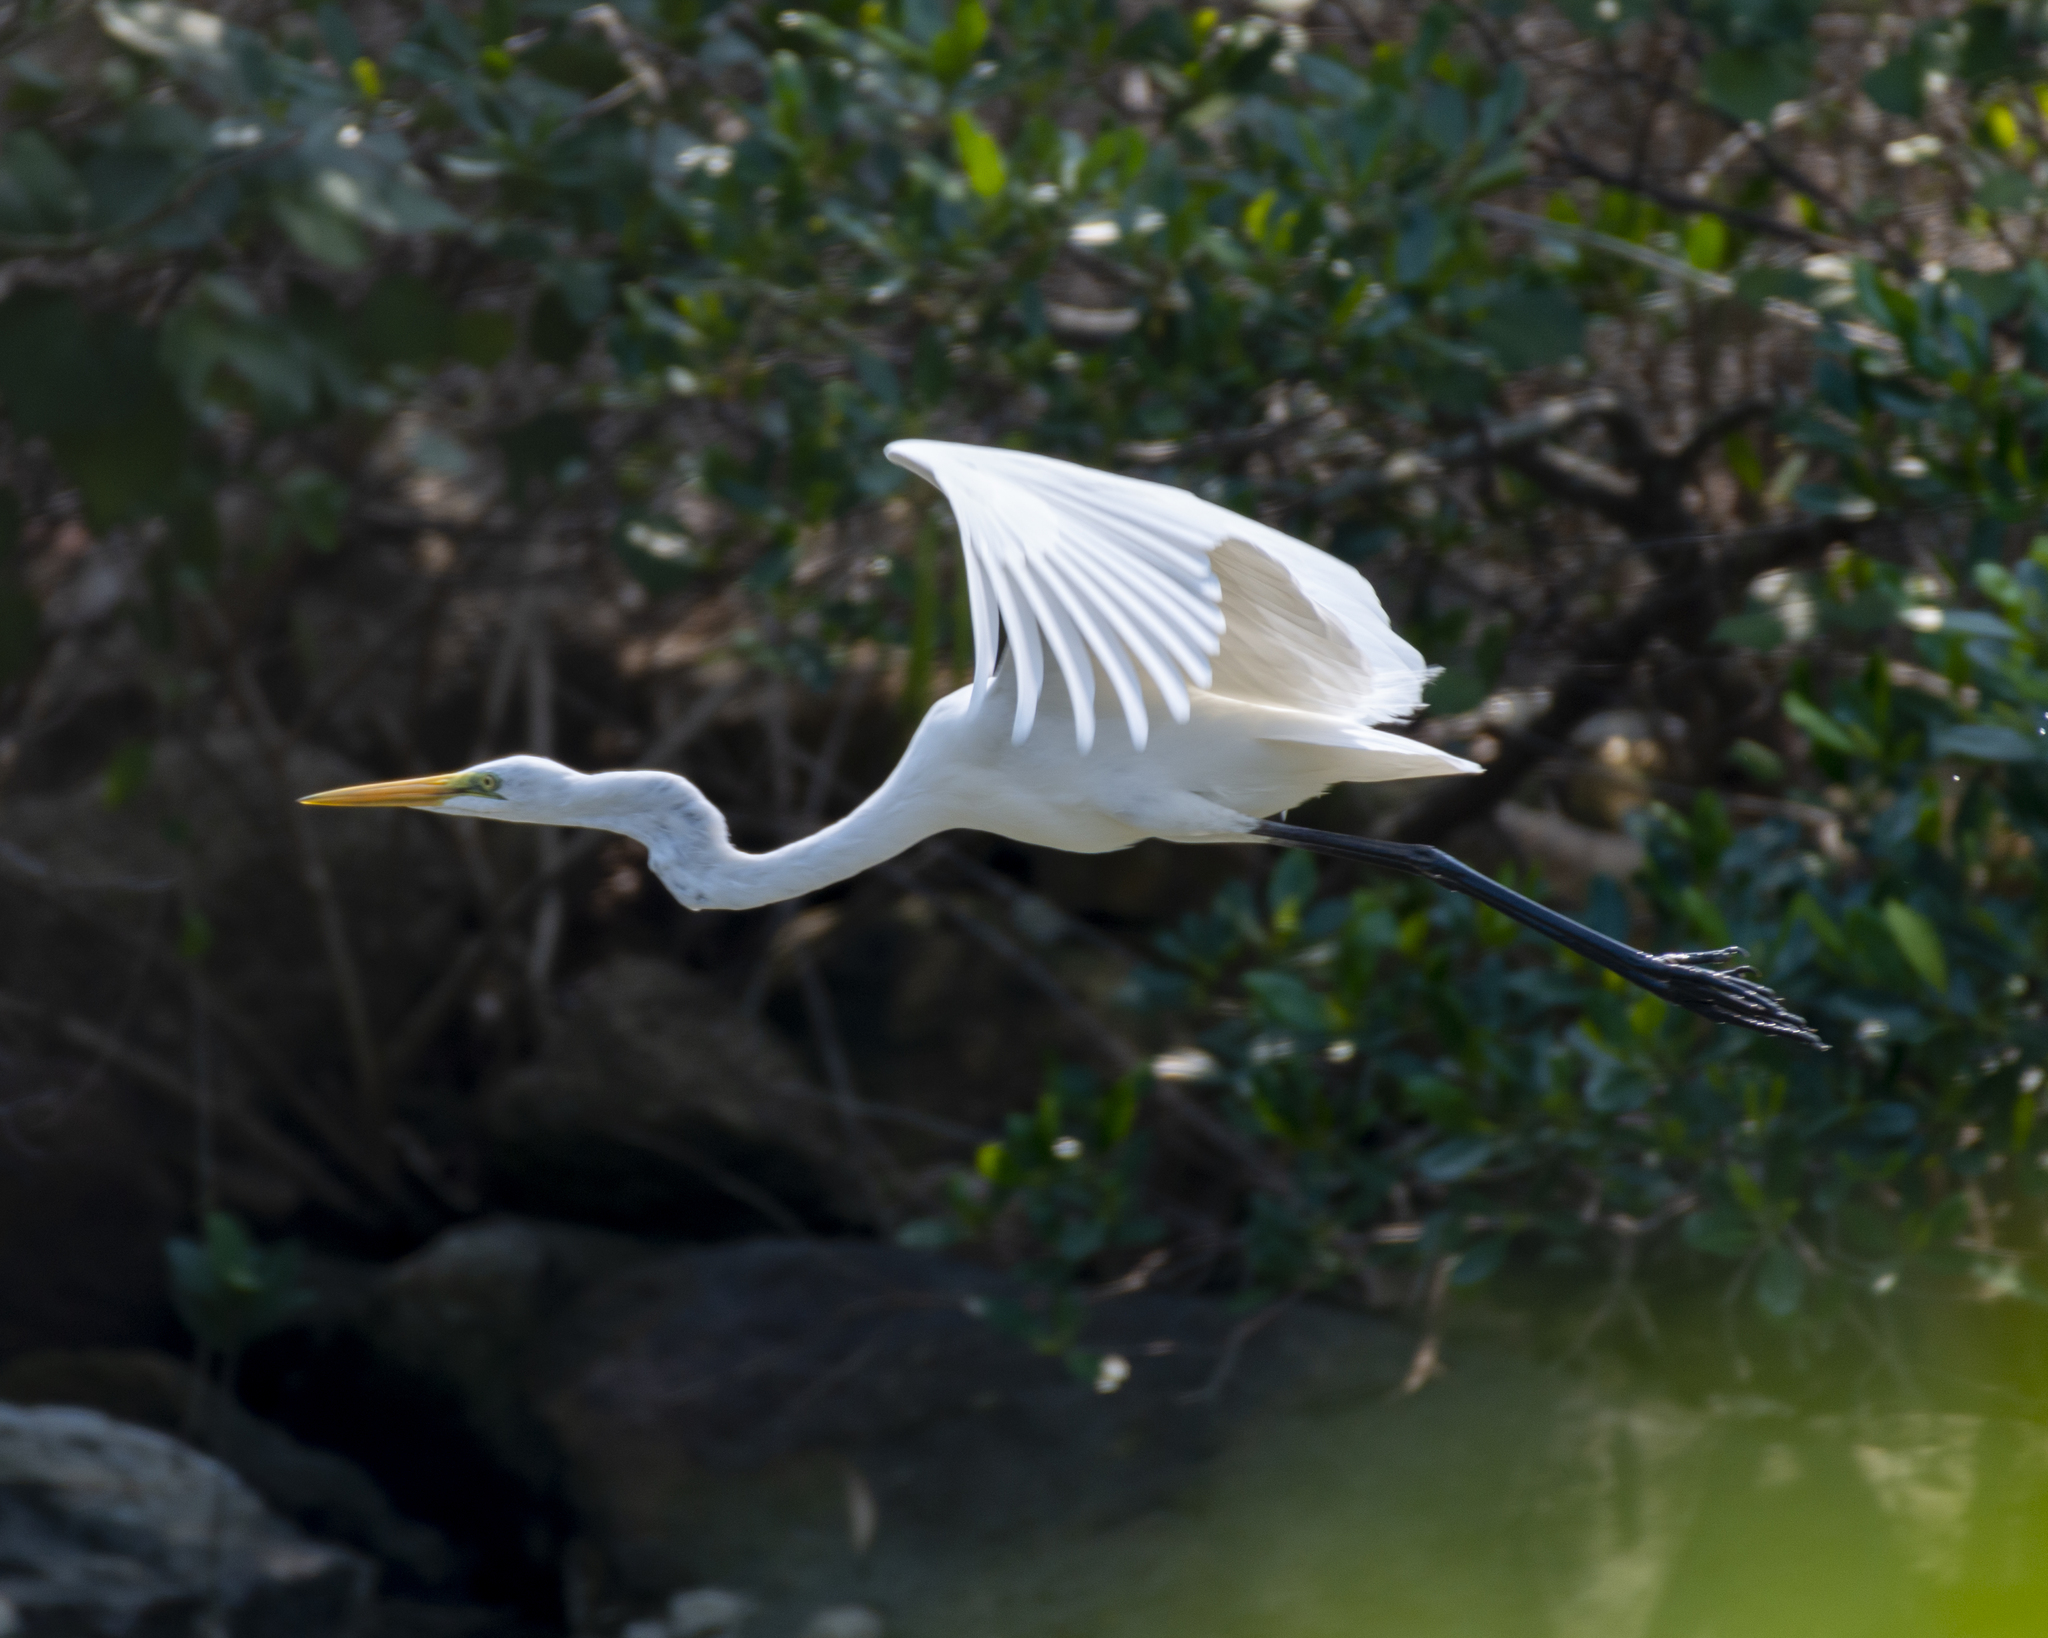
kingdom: Animalia
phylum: Chordata
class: Aves
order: Pelecaniformes
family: Ardeidae
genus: Ardea
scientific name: Ardea alba
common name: Great egret
